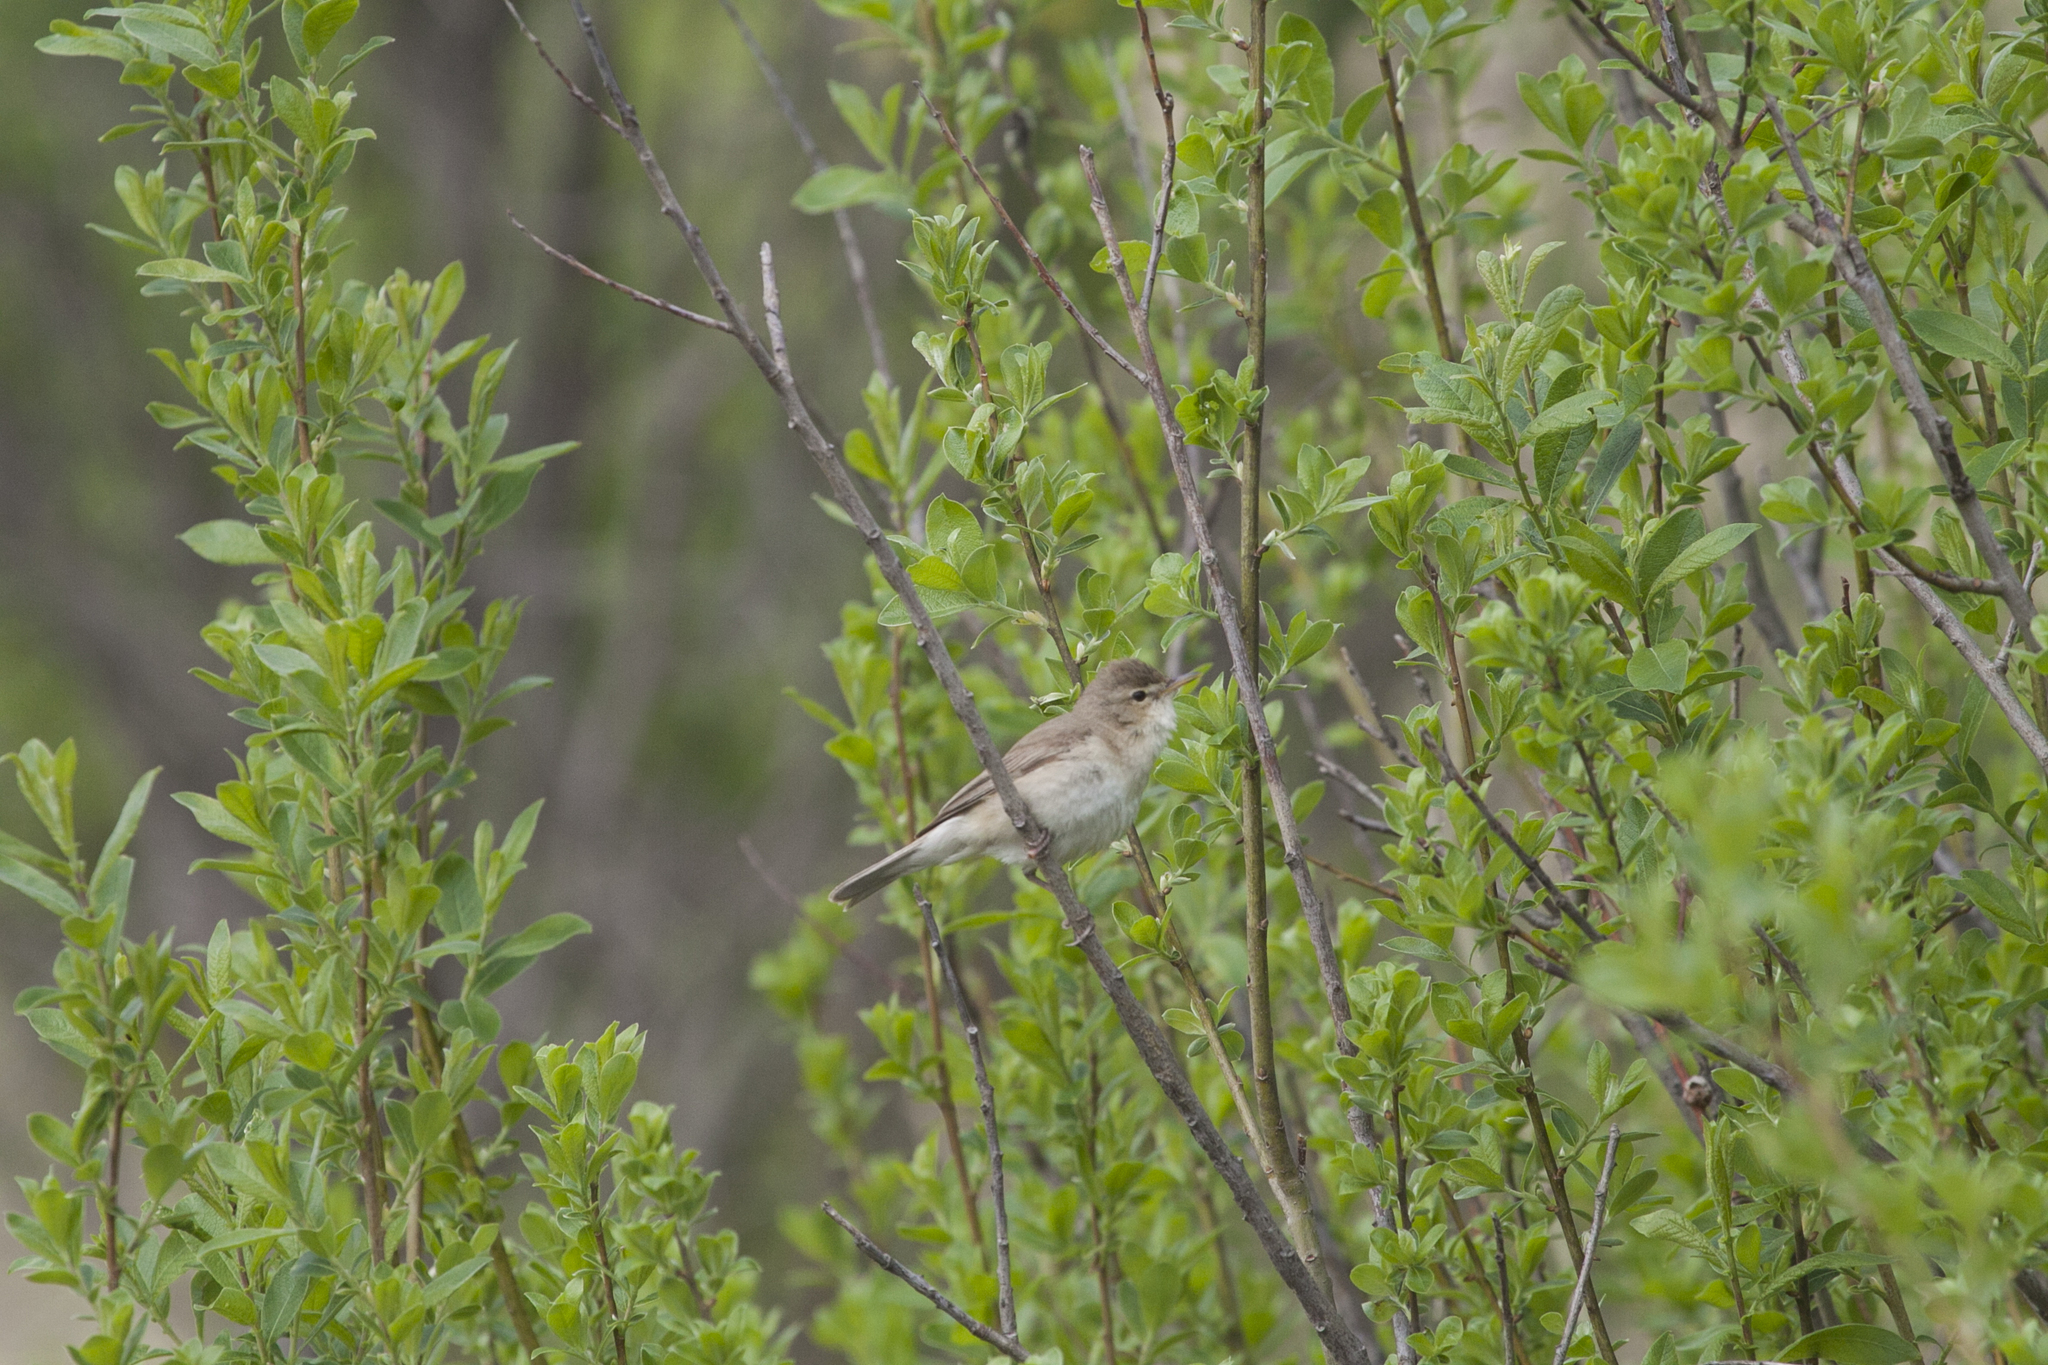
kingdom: Animalia
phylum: Chordata
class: Aves
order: Passeriformes
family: Acrocephalidae
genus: Acrocephalus
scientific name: Acrocephalus dumetorum
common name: Blyth's reed warbler
